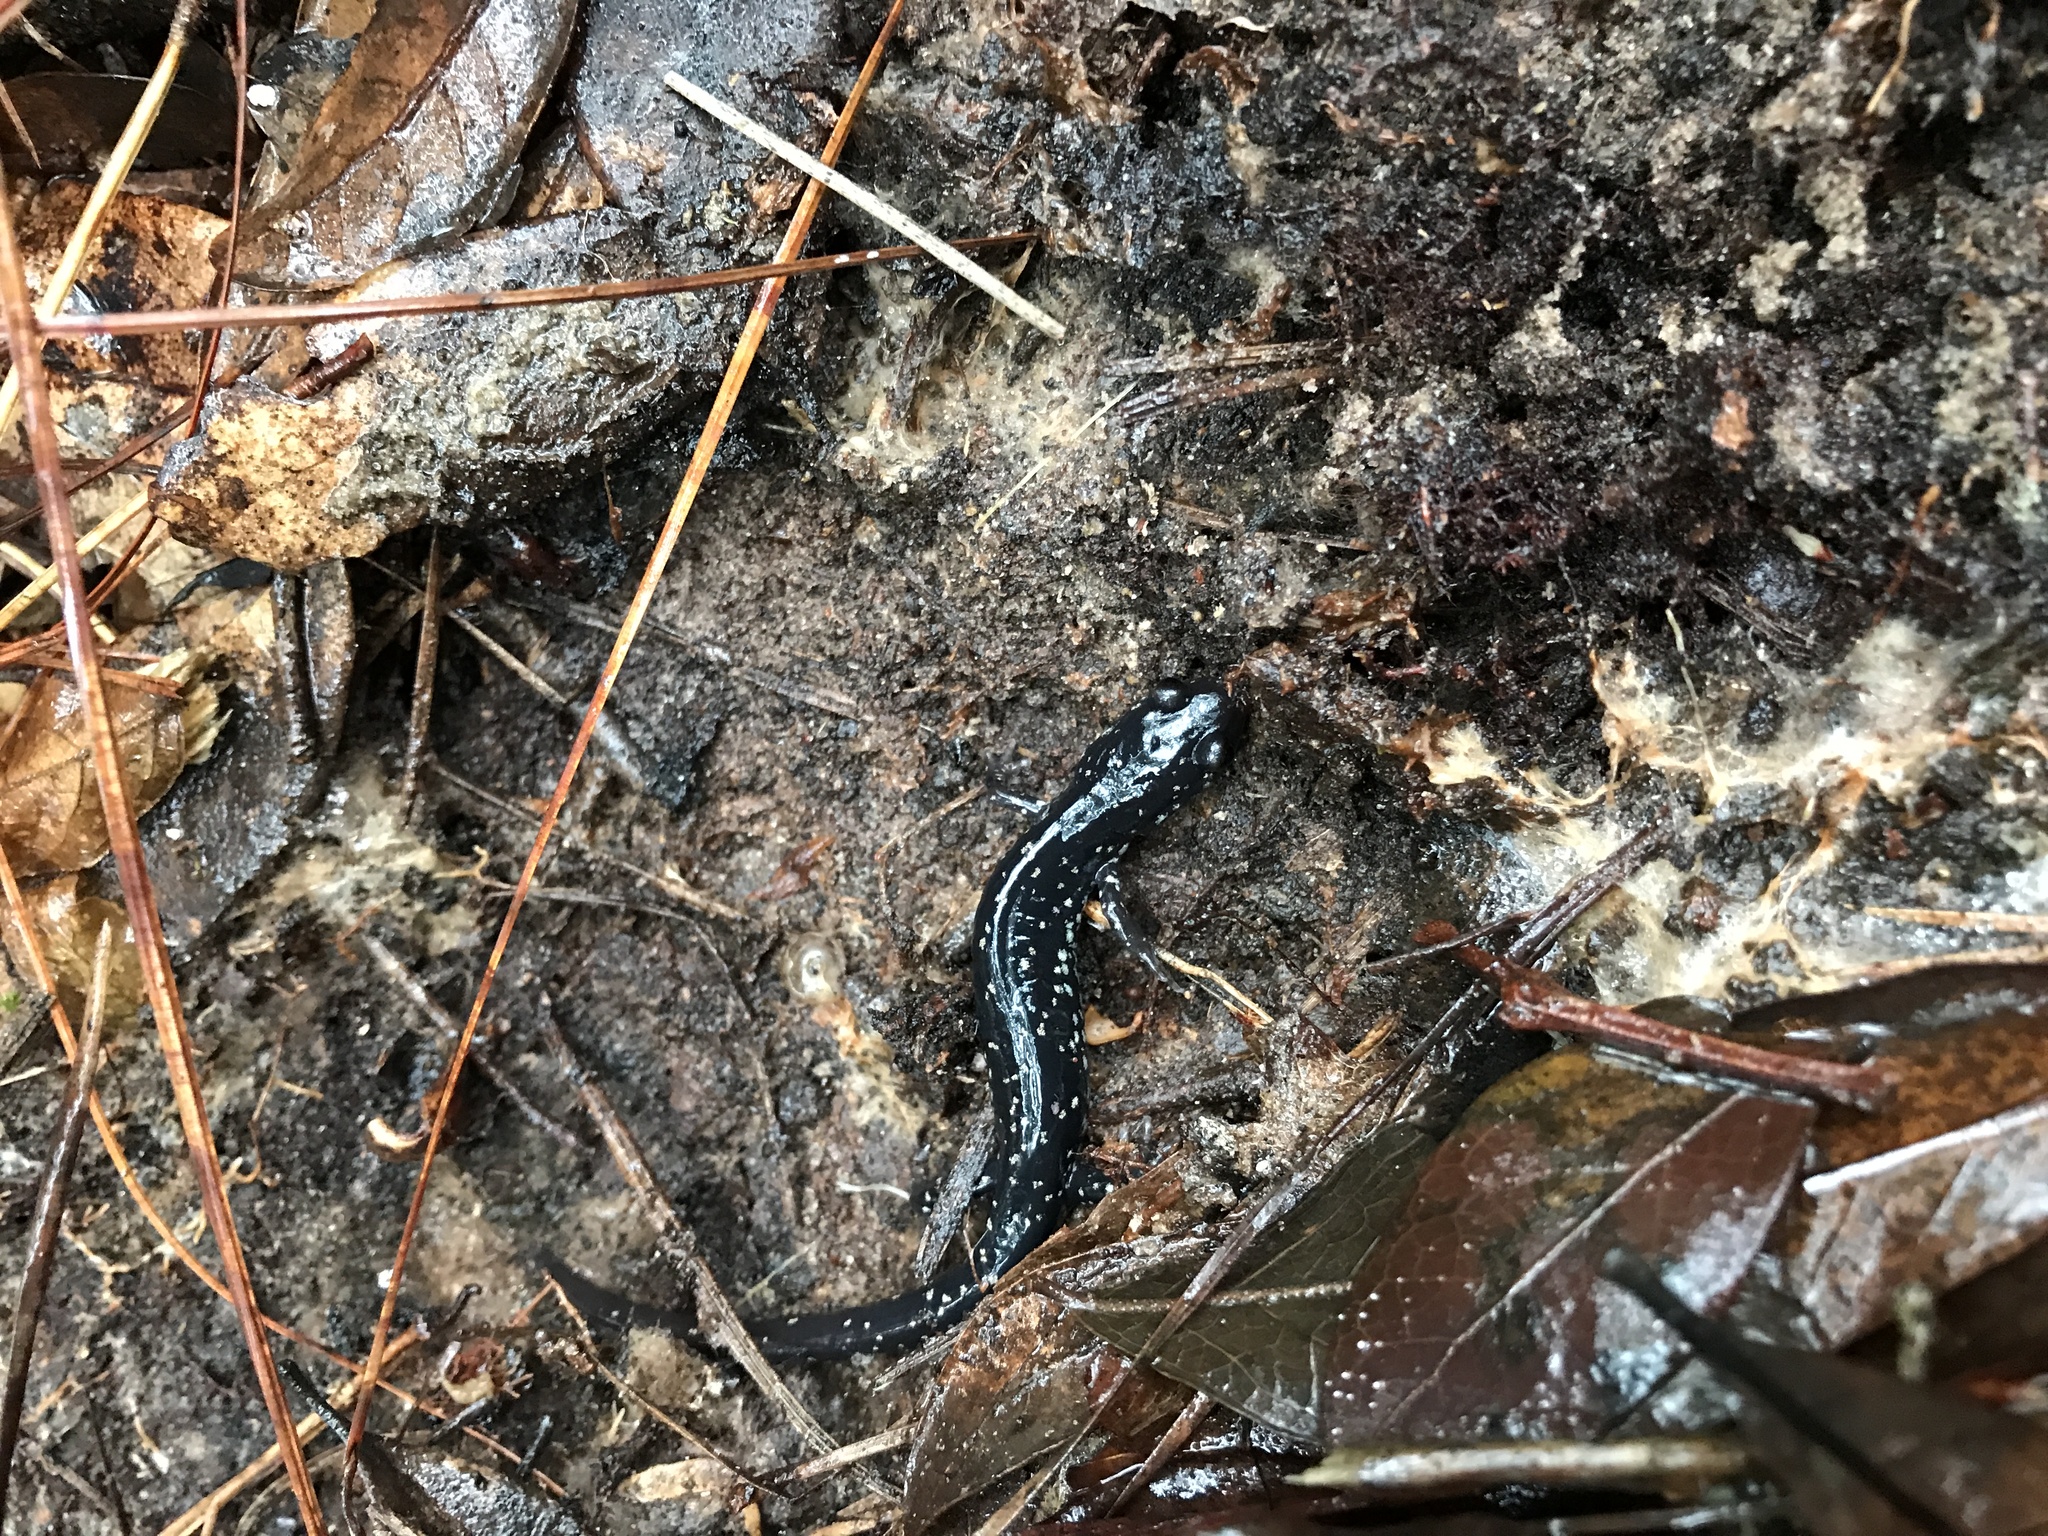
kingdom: Animalia
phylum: Chordata
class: Amphibia
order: Caudata
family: Plethodontidae
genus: Plethodon
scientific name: Plethodon mississippi
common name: Mississippi slimy salamander
